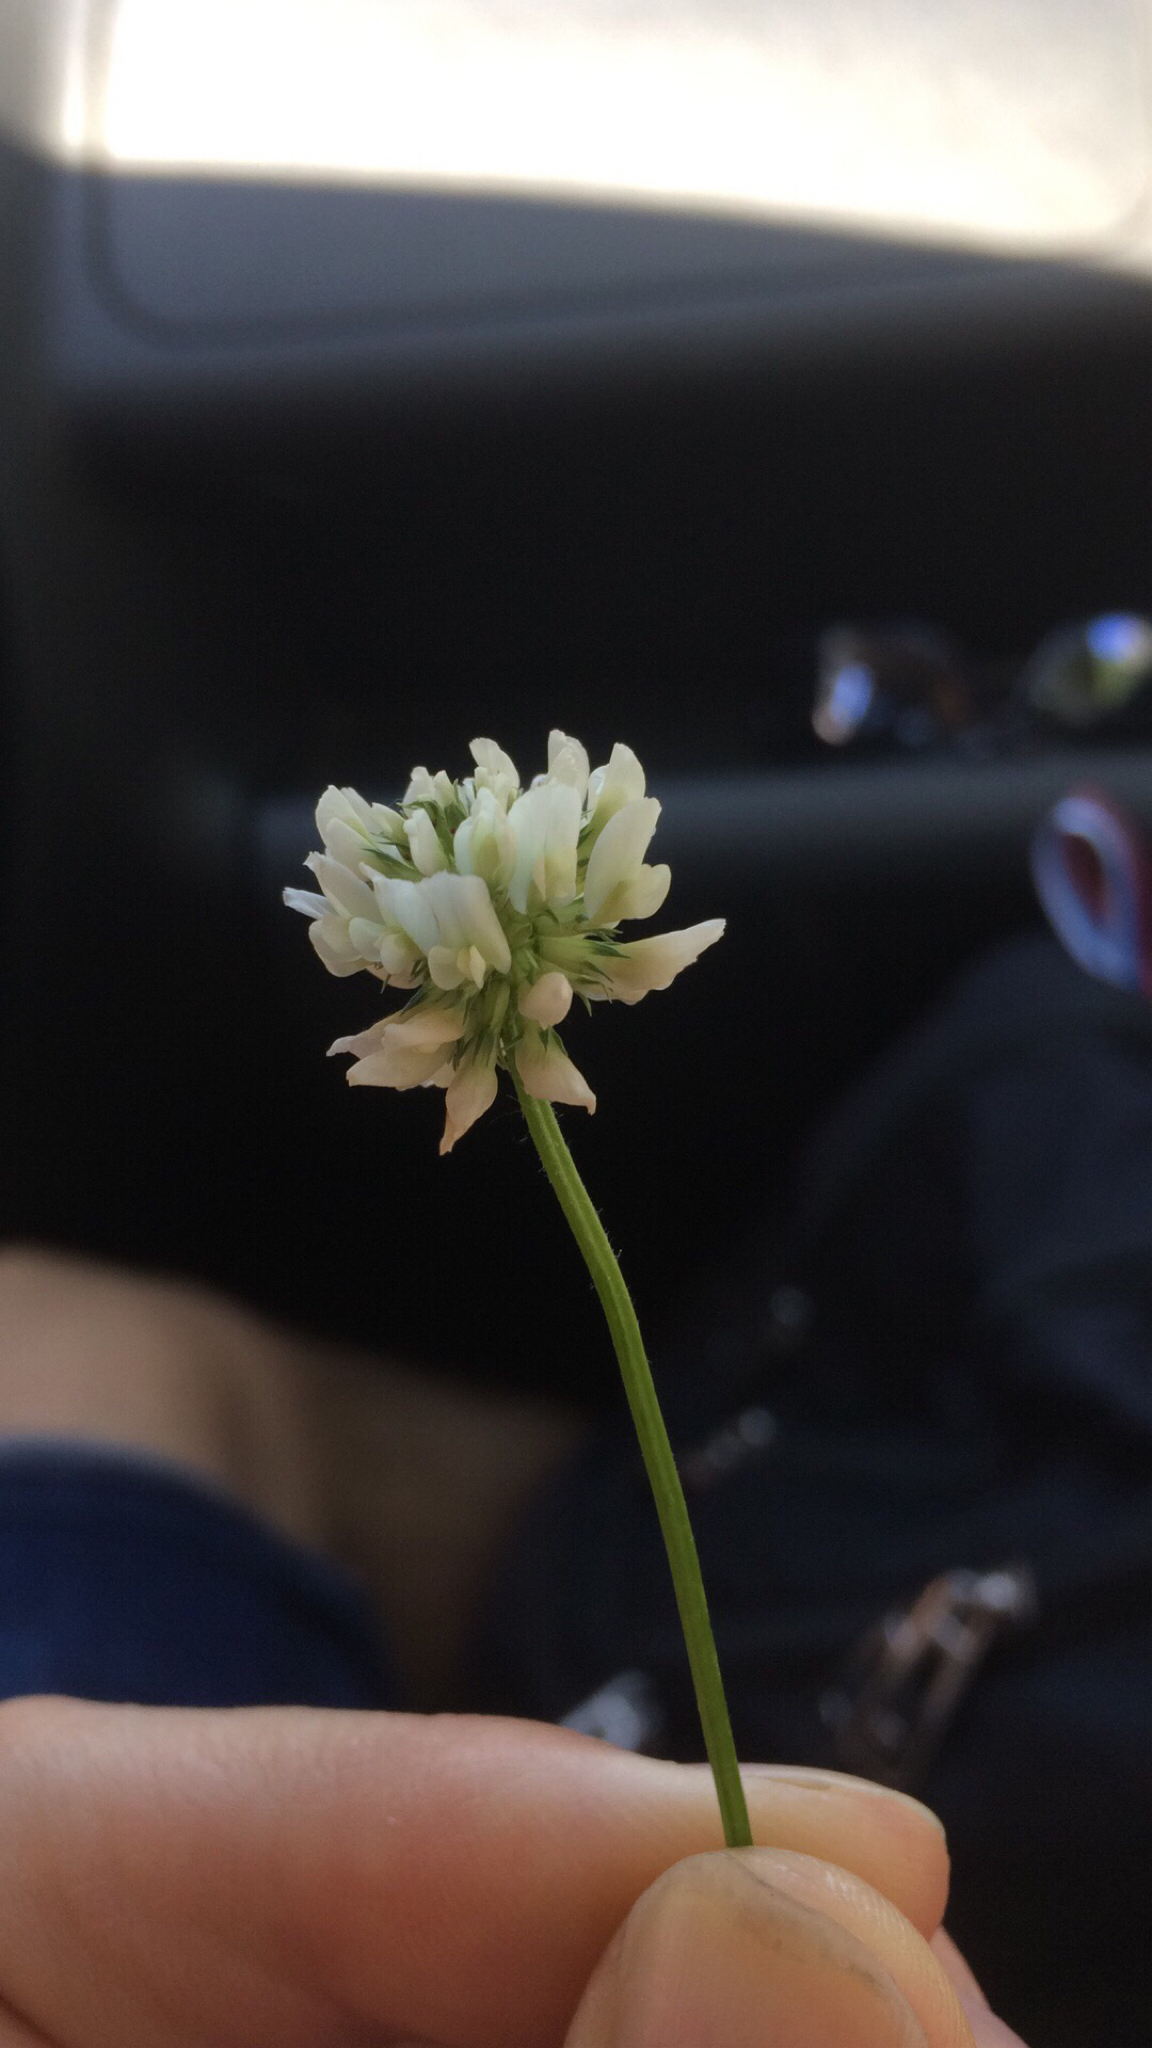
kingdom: Plantae
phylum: Tracheophyta
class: Magnoliopsida
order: Fabales
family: Fabaceae
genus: Trifolium
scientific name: Trifolium repens
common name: White clover
